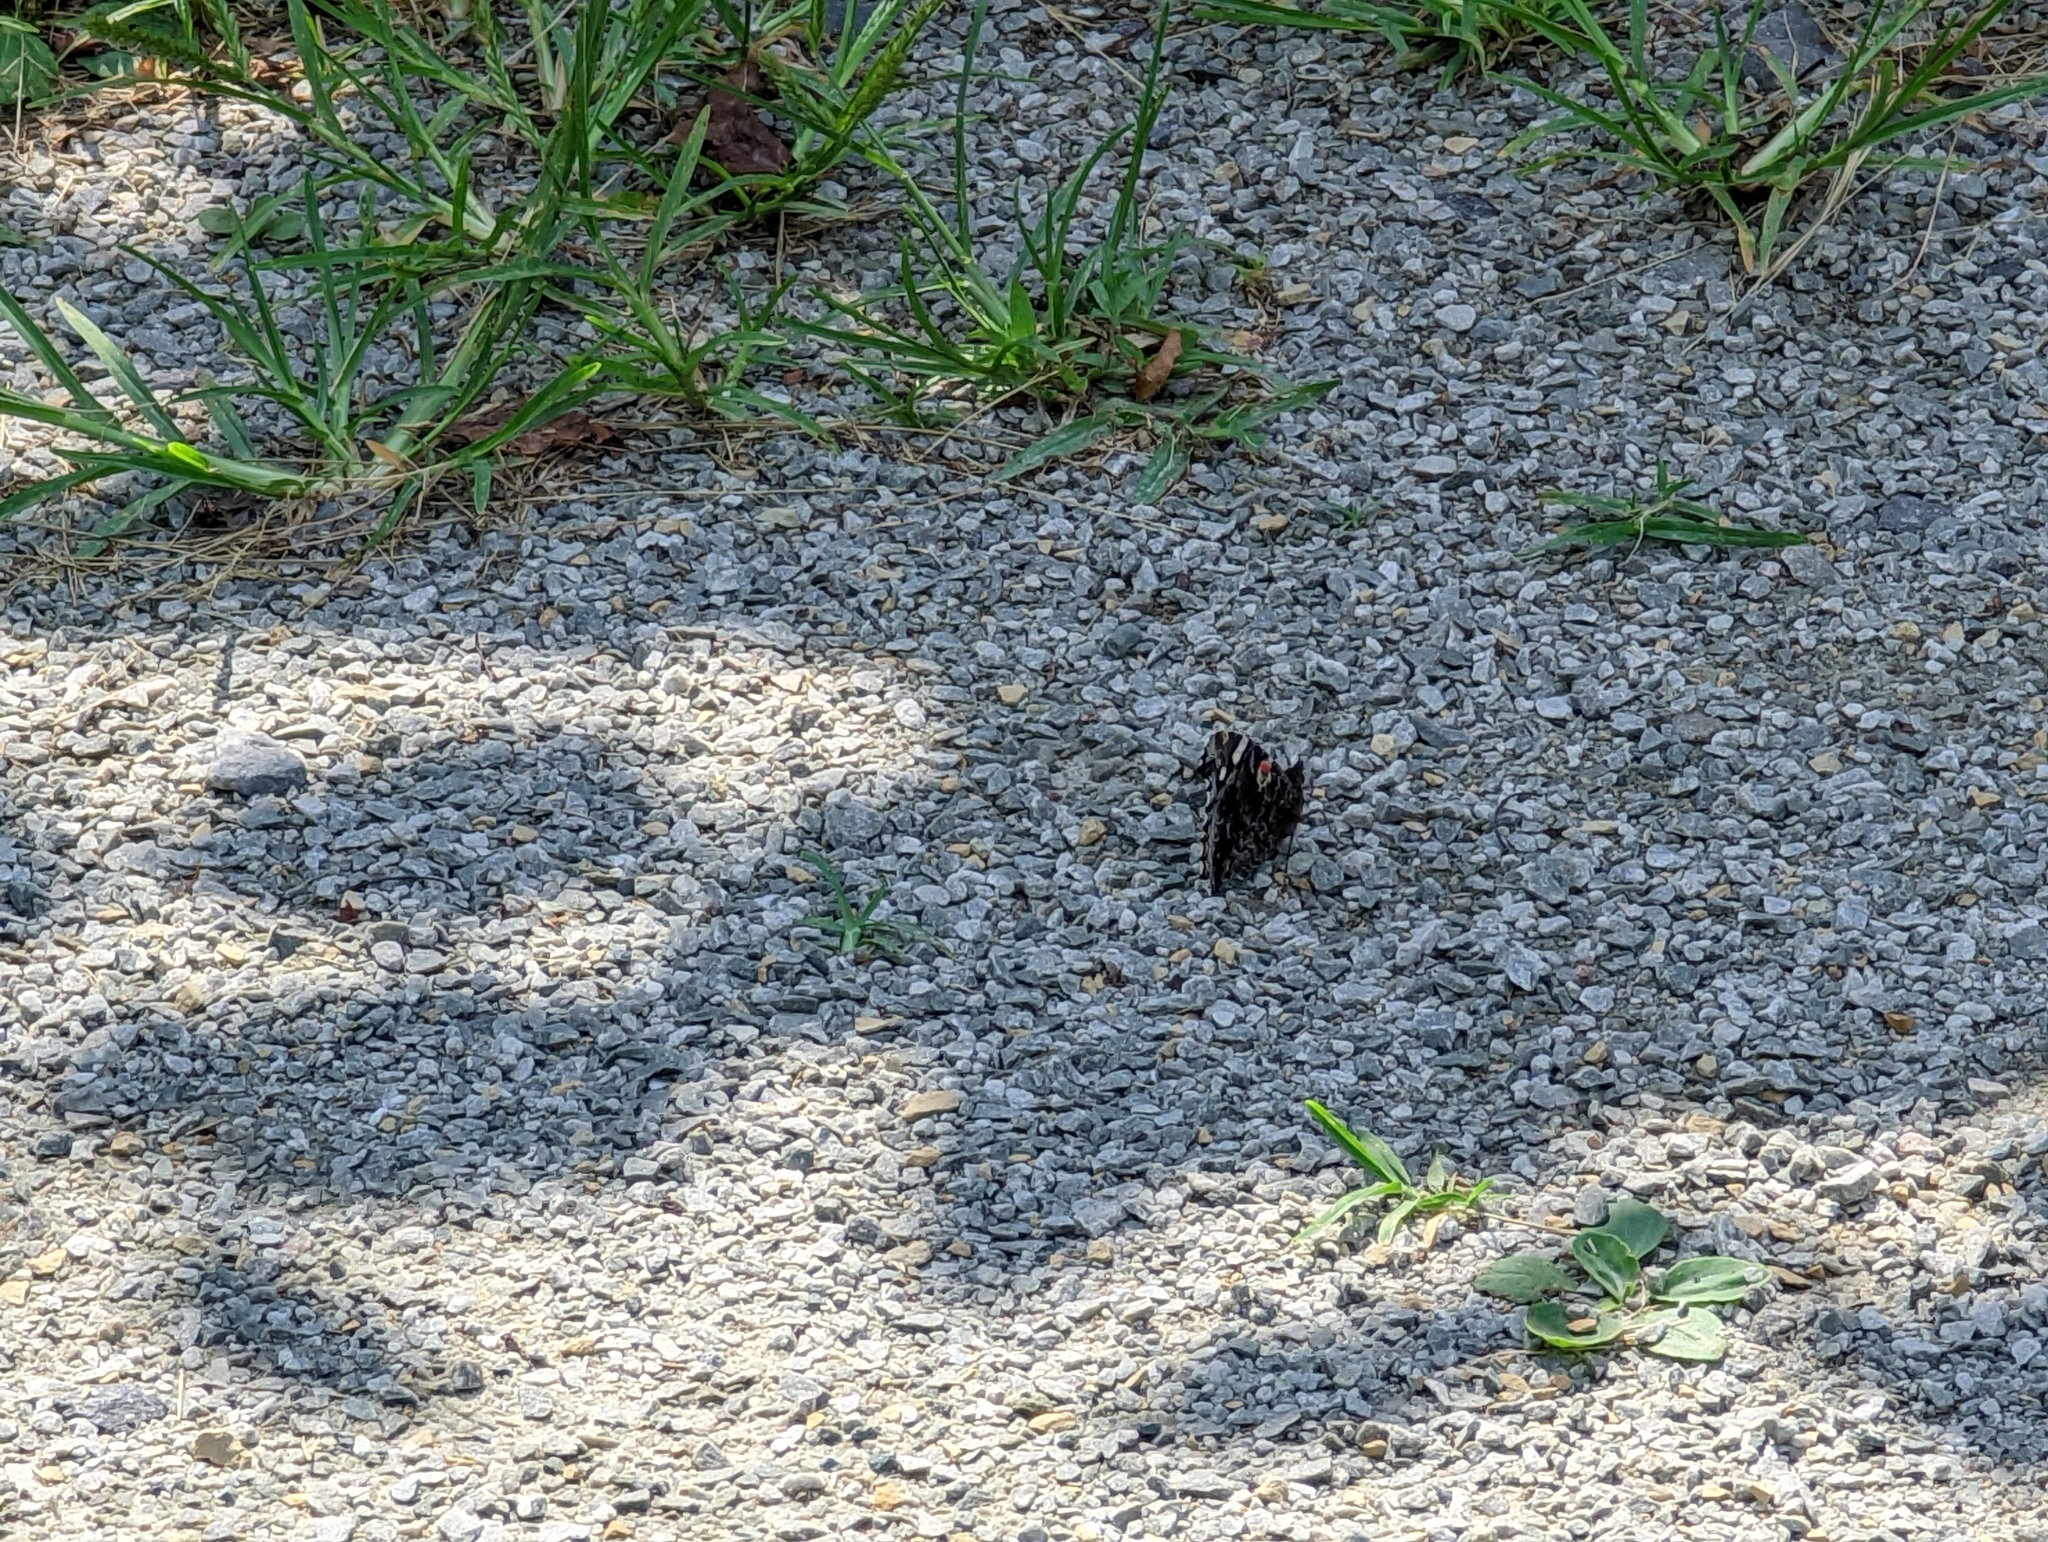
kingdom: Animalia
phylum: Arthropoda
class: Insecta
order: Lepidoptera
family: Nymphalidae
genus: Vanessa
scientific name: Vanessa atalanta
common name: Red admiral
